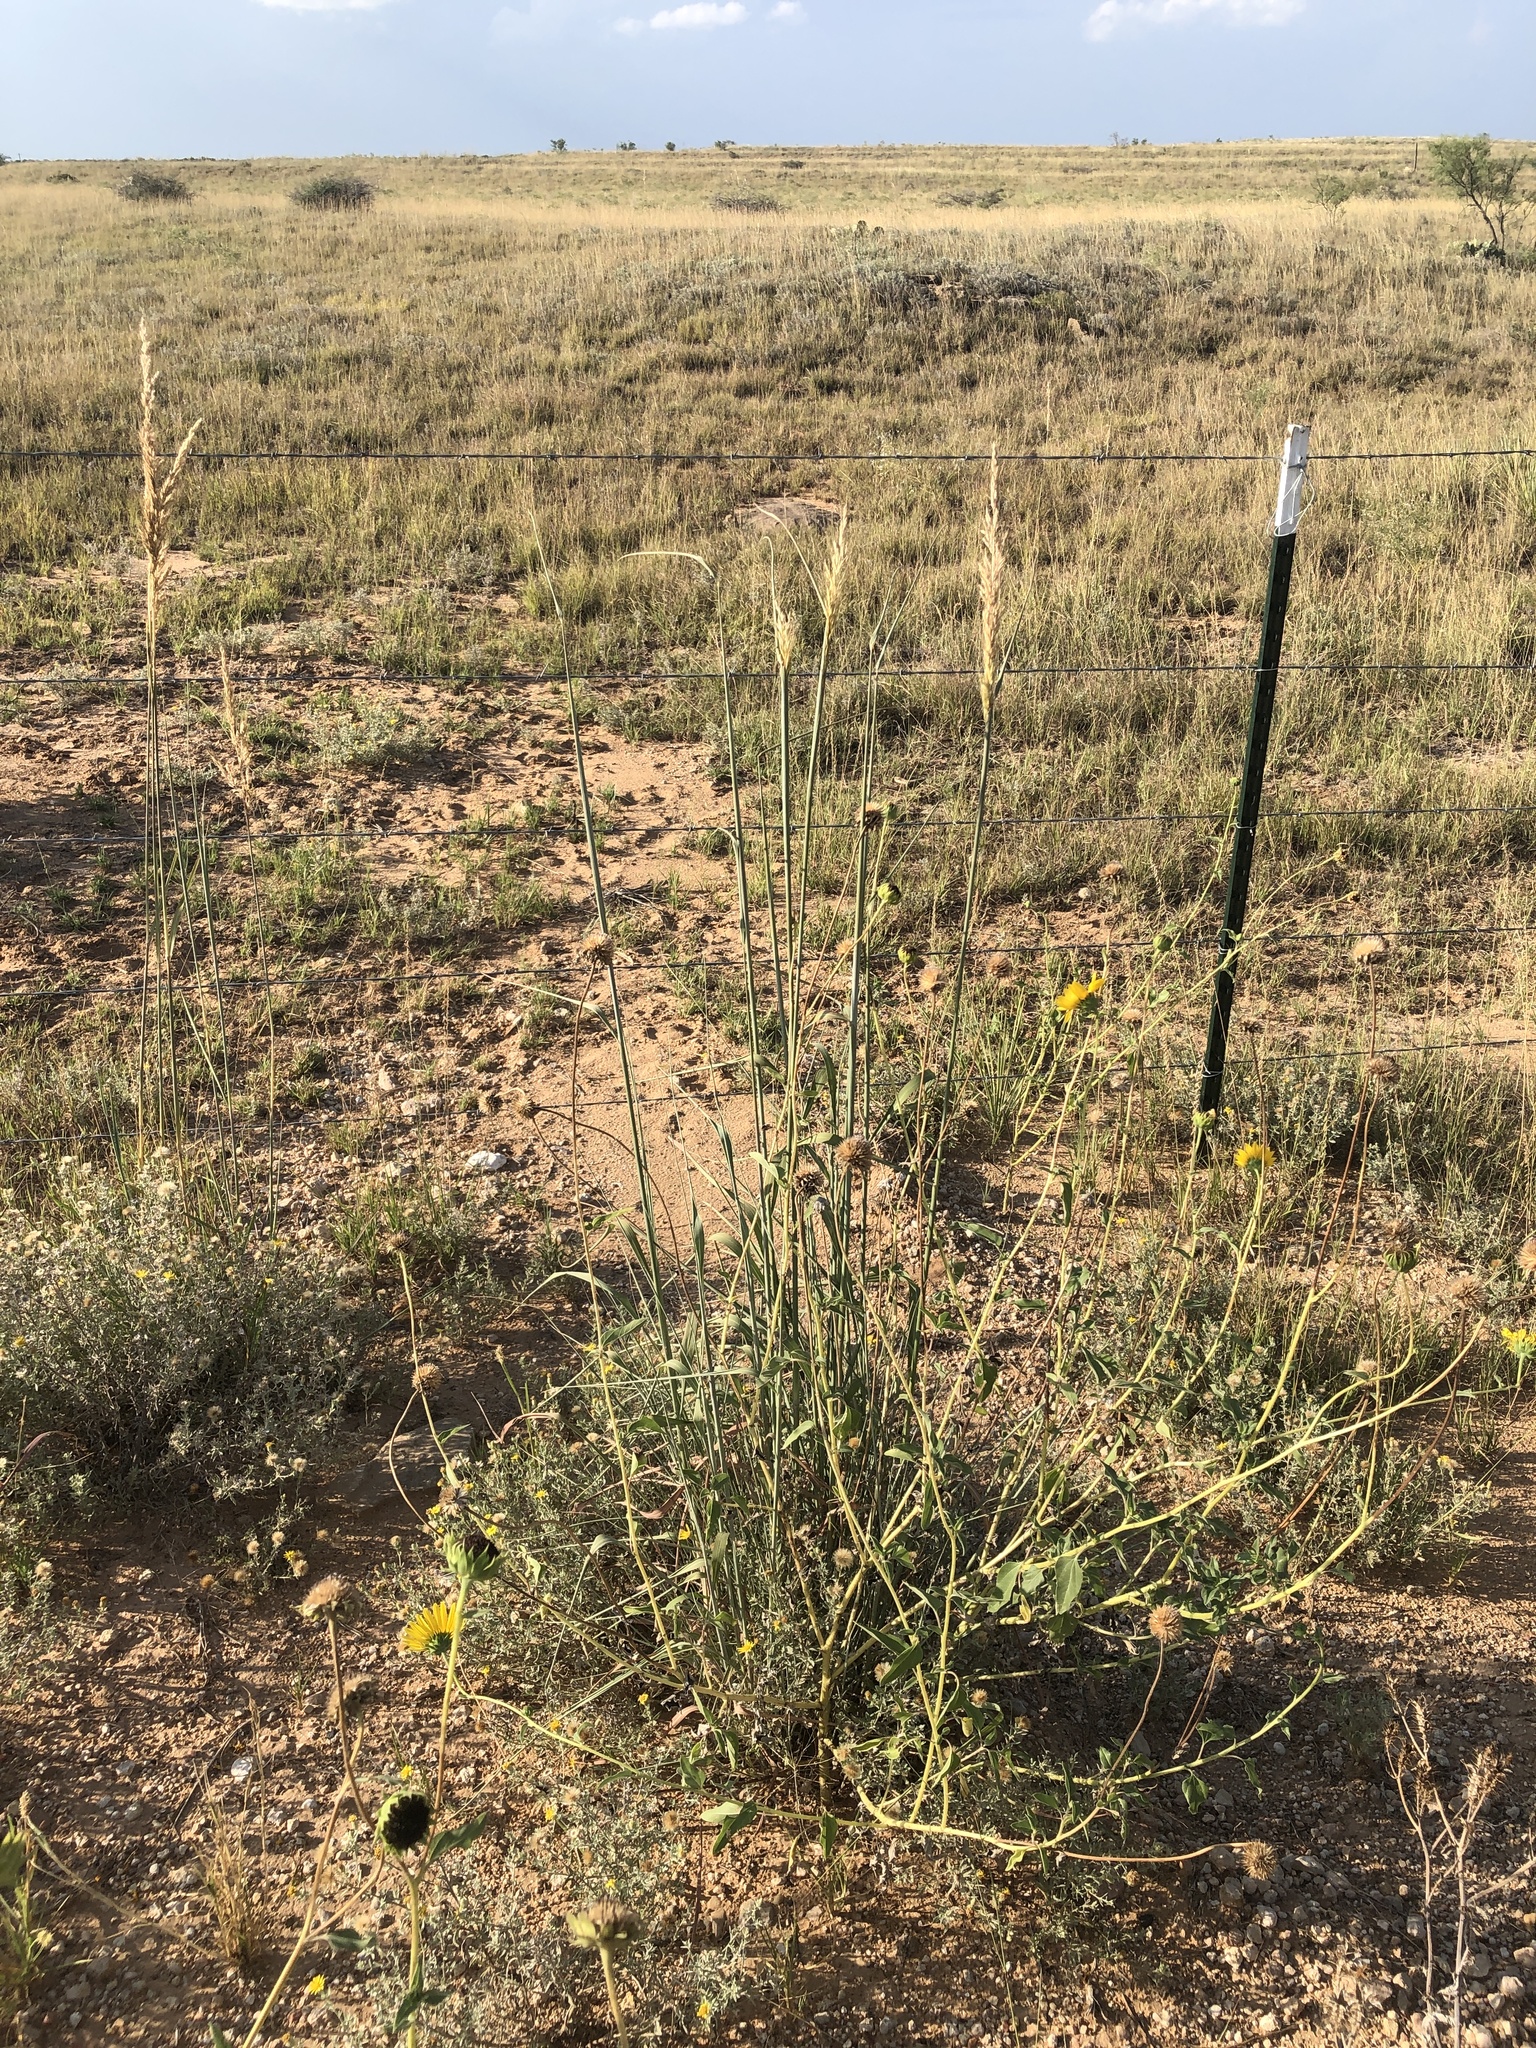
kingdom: Plantae
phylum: Tracheophyta
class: Liliopsida
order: Poales
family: Poaceae
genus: Sorghastrum
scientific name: Sorghastrum nutans
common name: Indian grass
